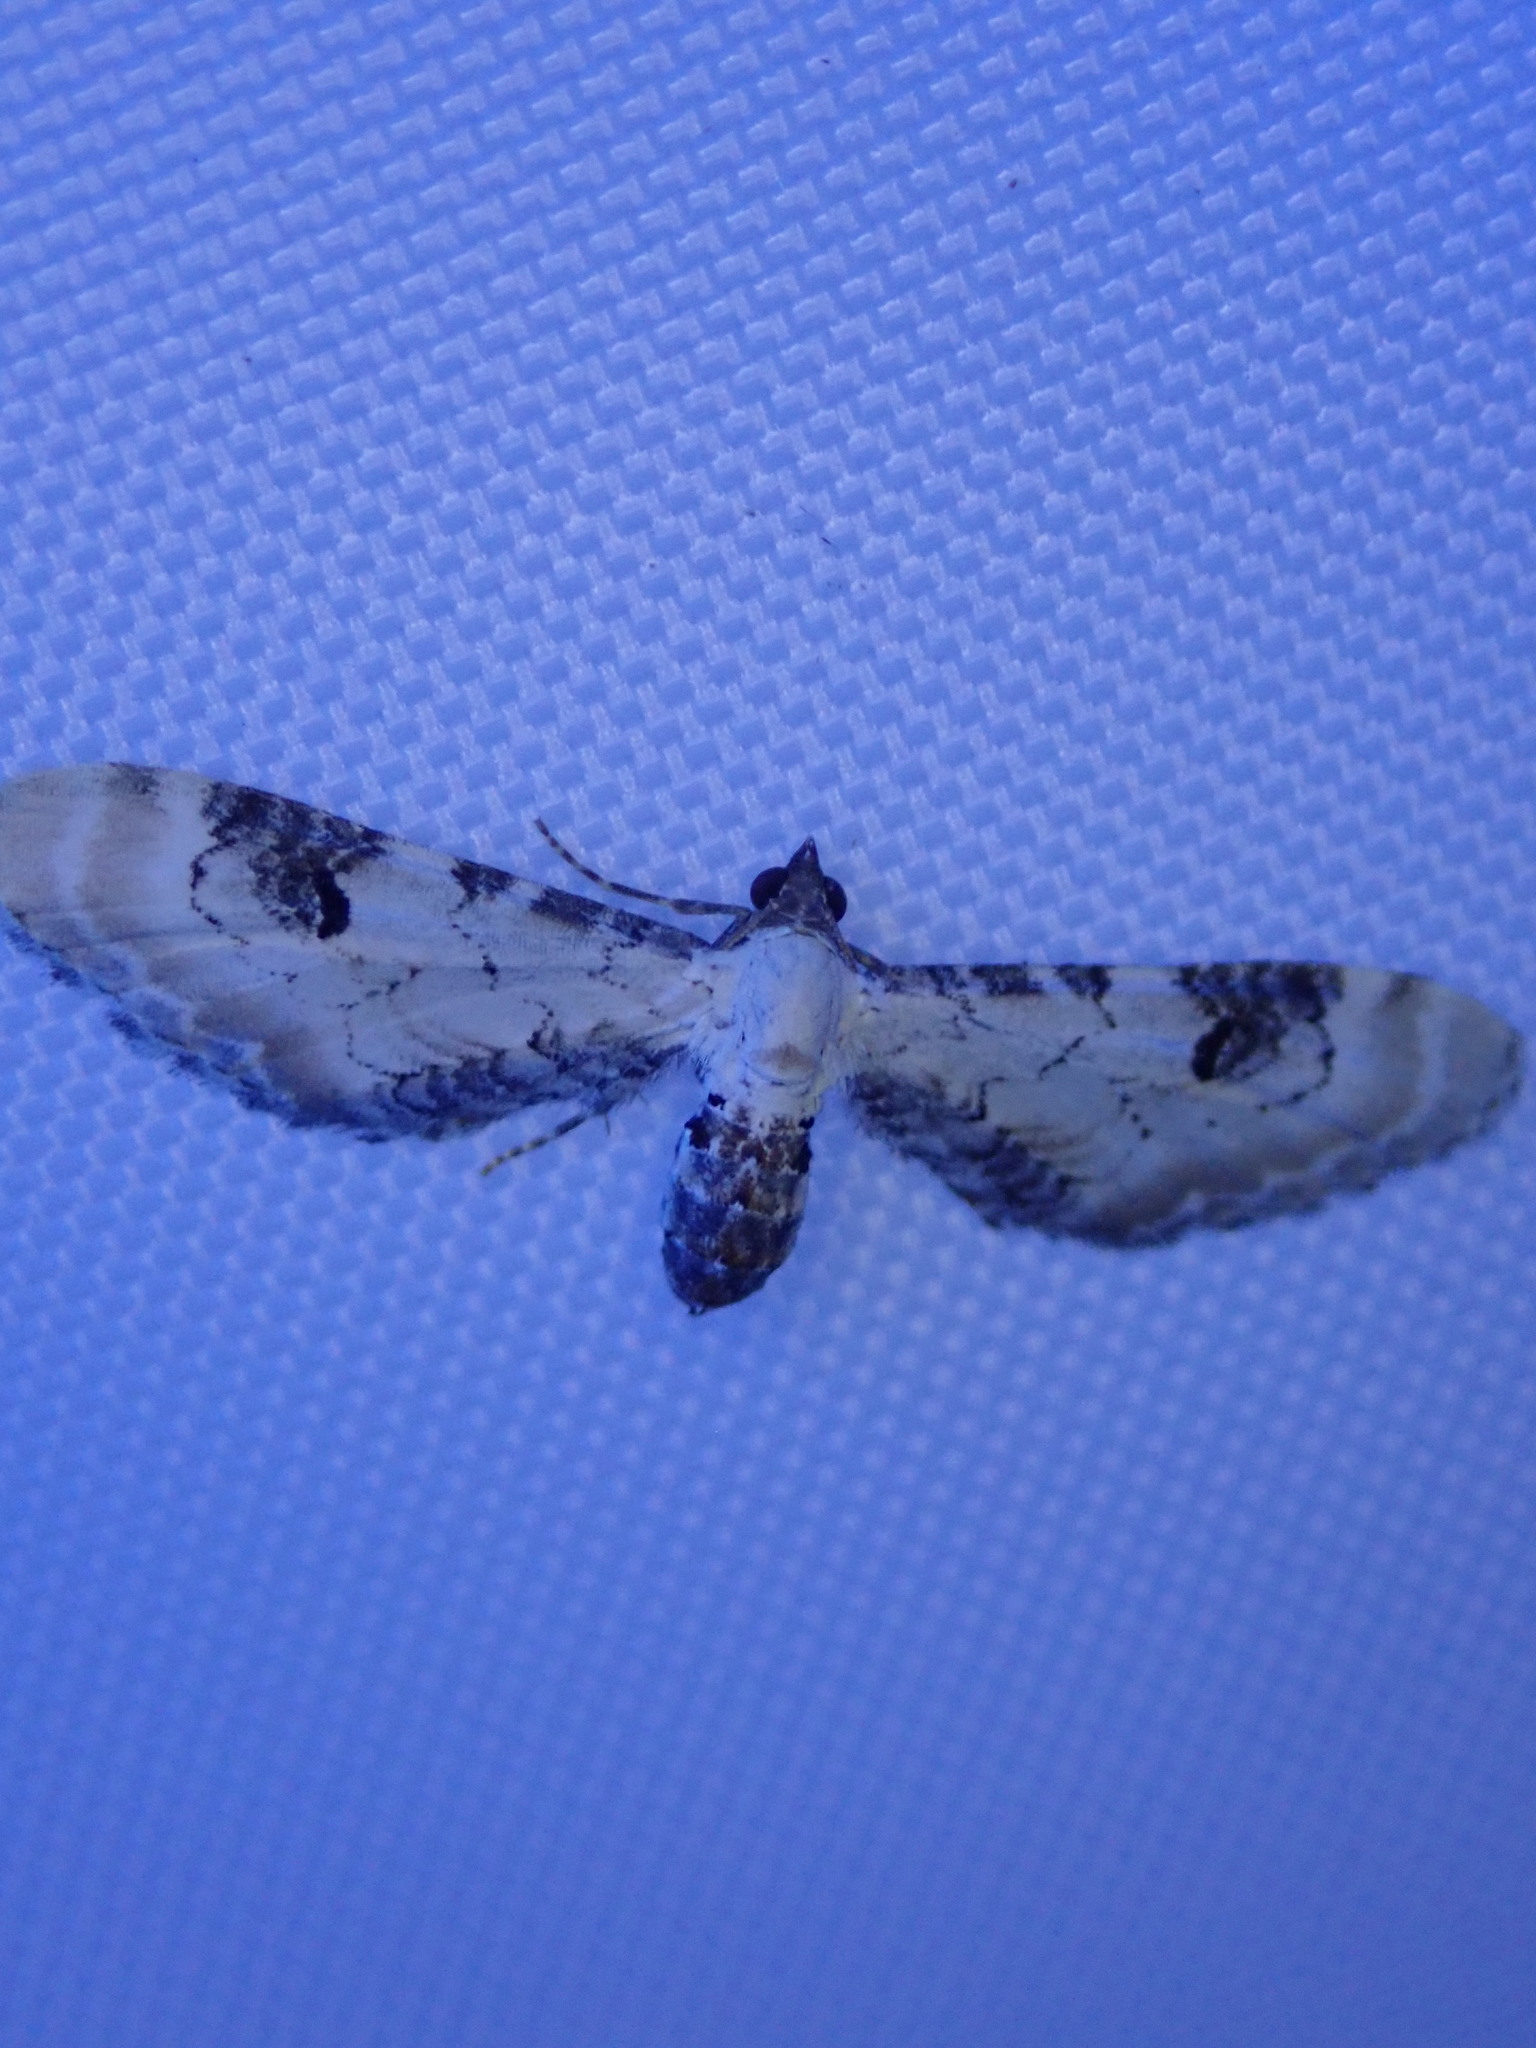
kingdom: Animalia
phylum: Arthropoda
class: Insecta
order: Lepidoptera
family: Geometridae
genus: Eupithecia
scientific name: Eupithecia centaureata
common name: Lime-speck pug
